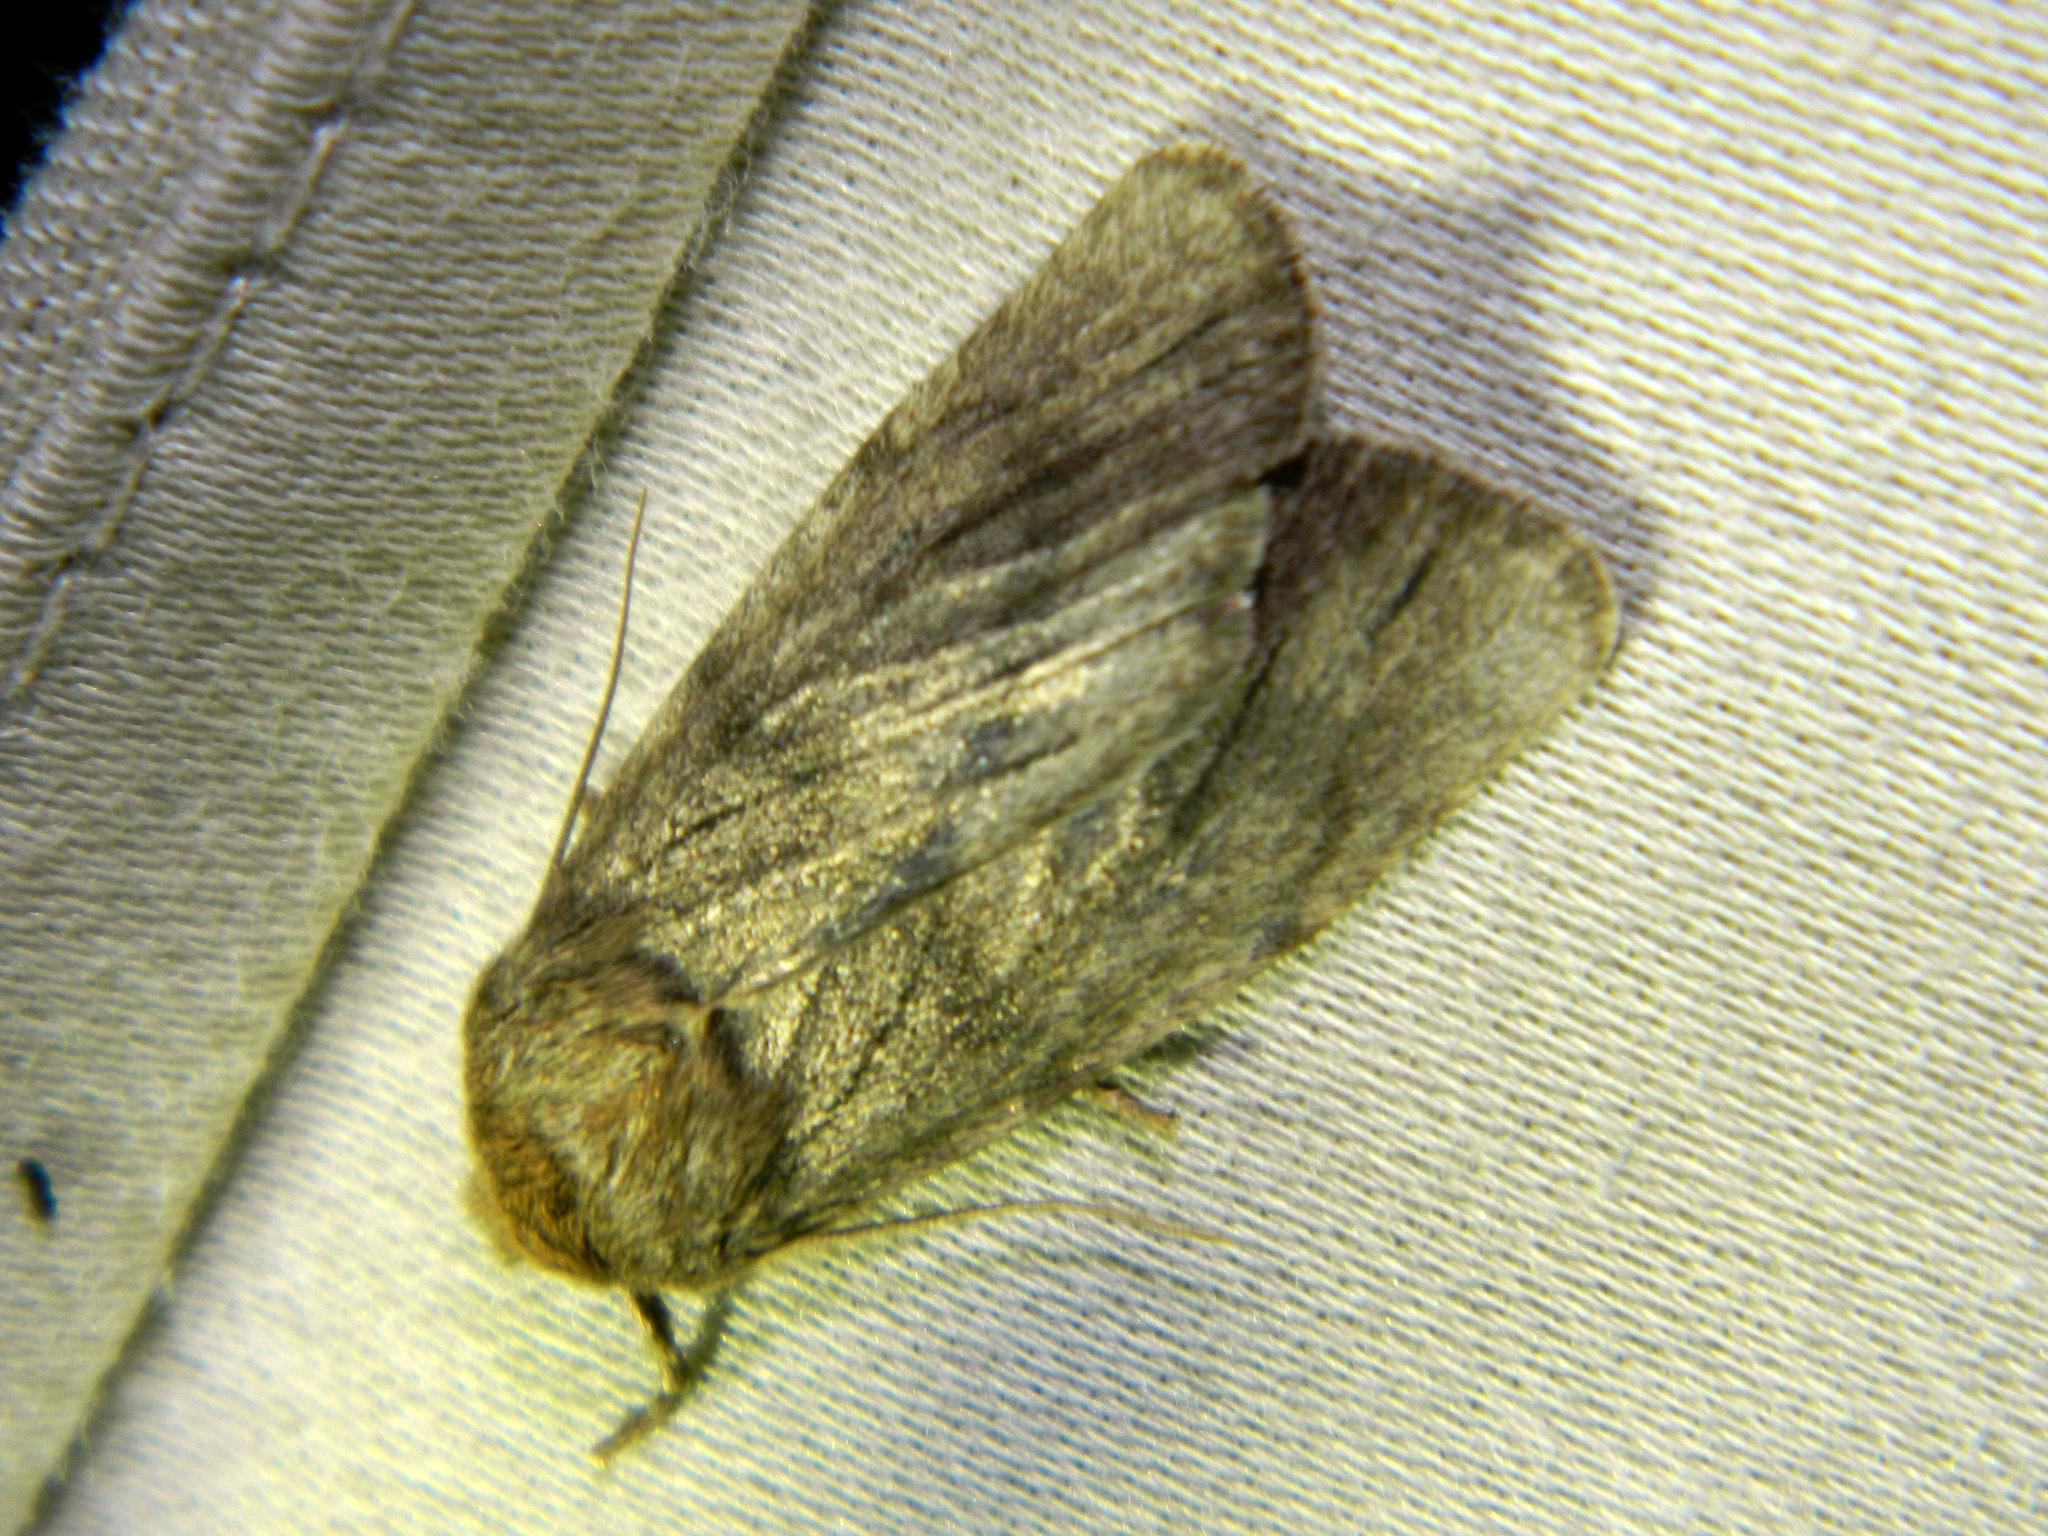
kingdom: Animalia
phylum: Arthropoda
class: Insecta
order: Lepidoptera
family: Noctuidae
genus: Ufeus
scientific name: Ufeus satyricus
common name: Brown satyr moth
